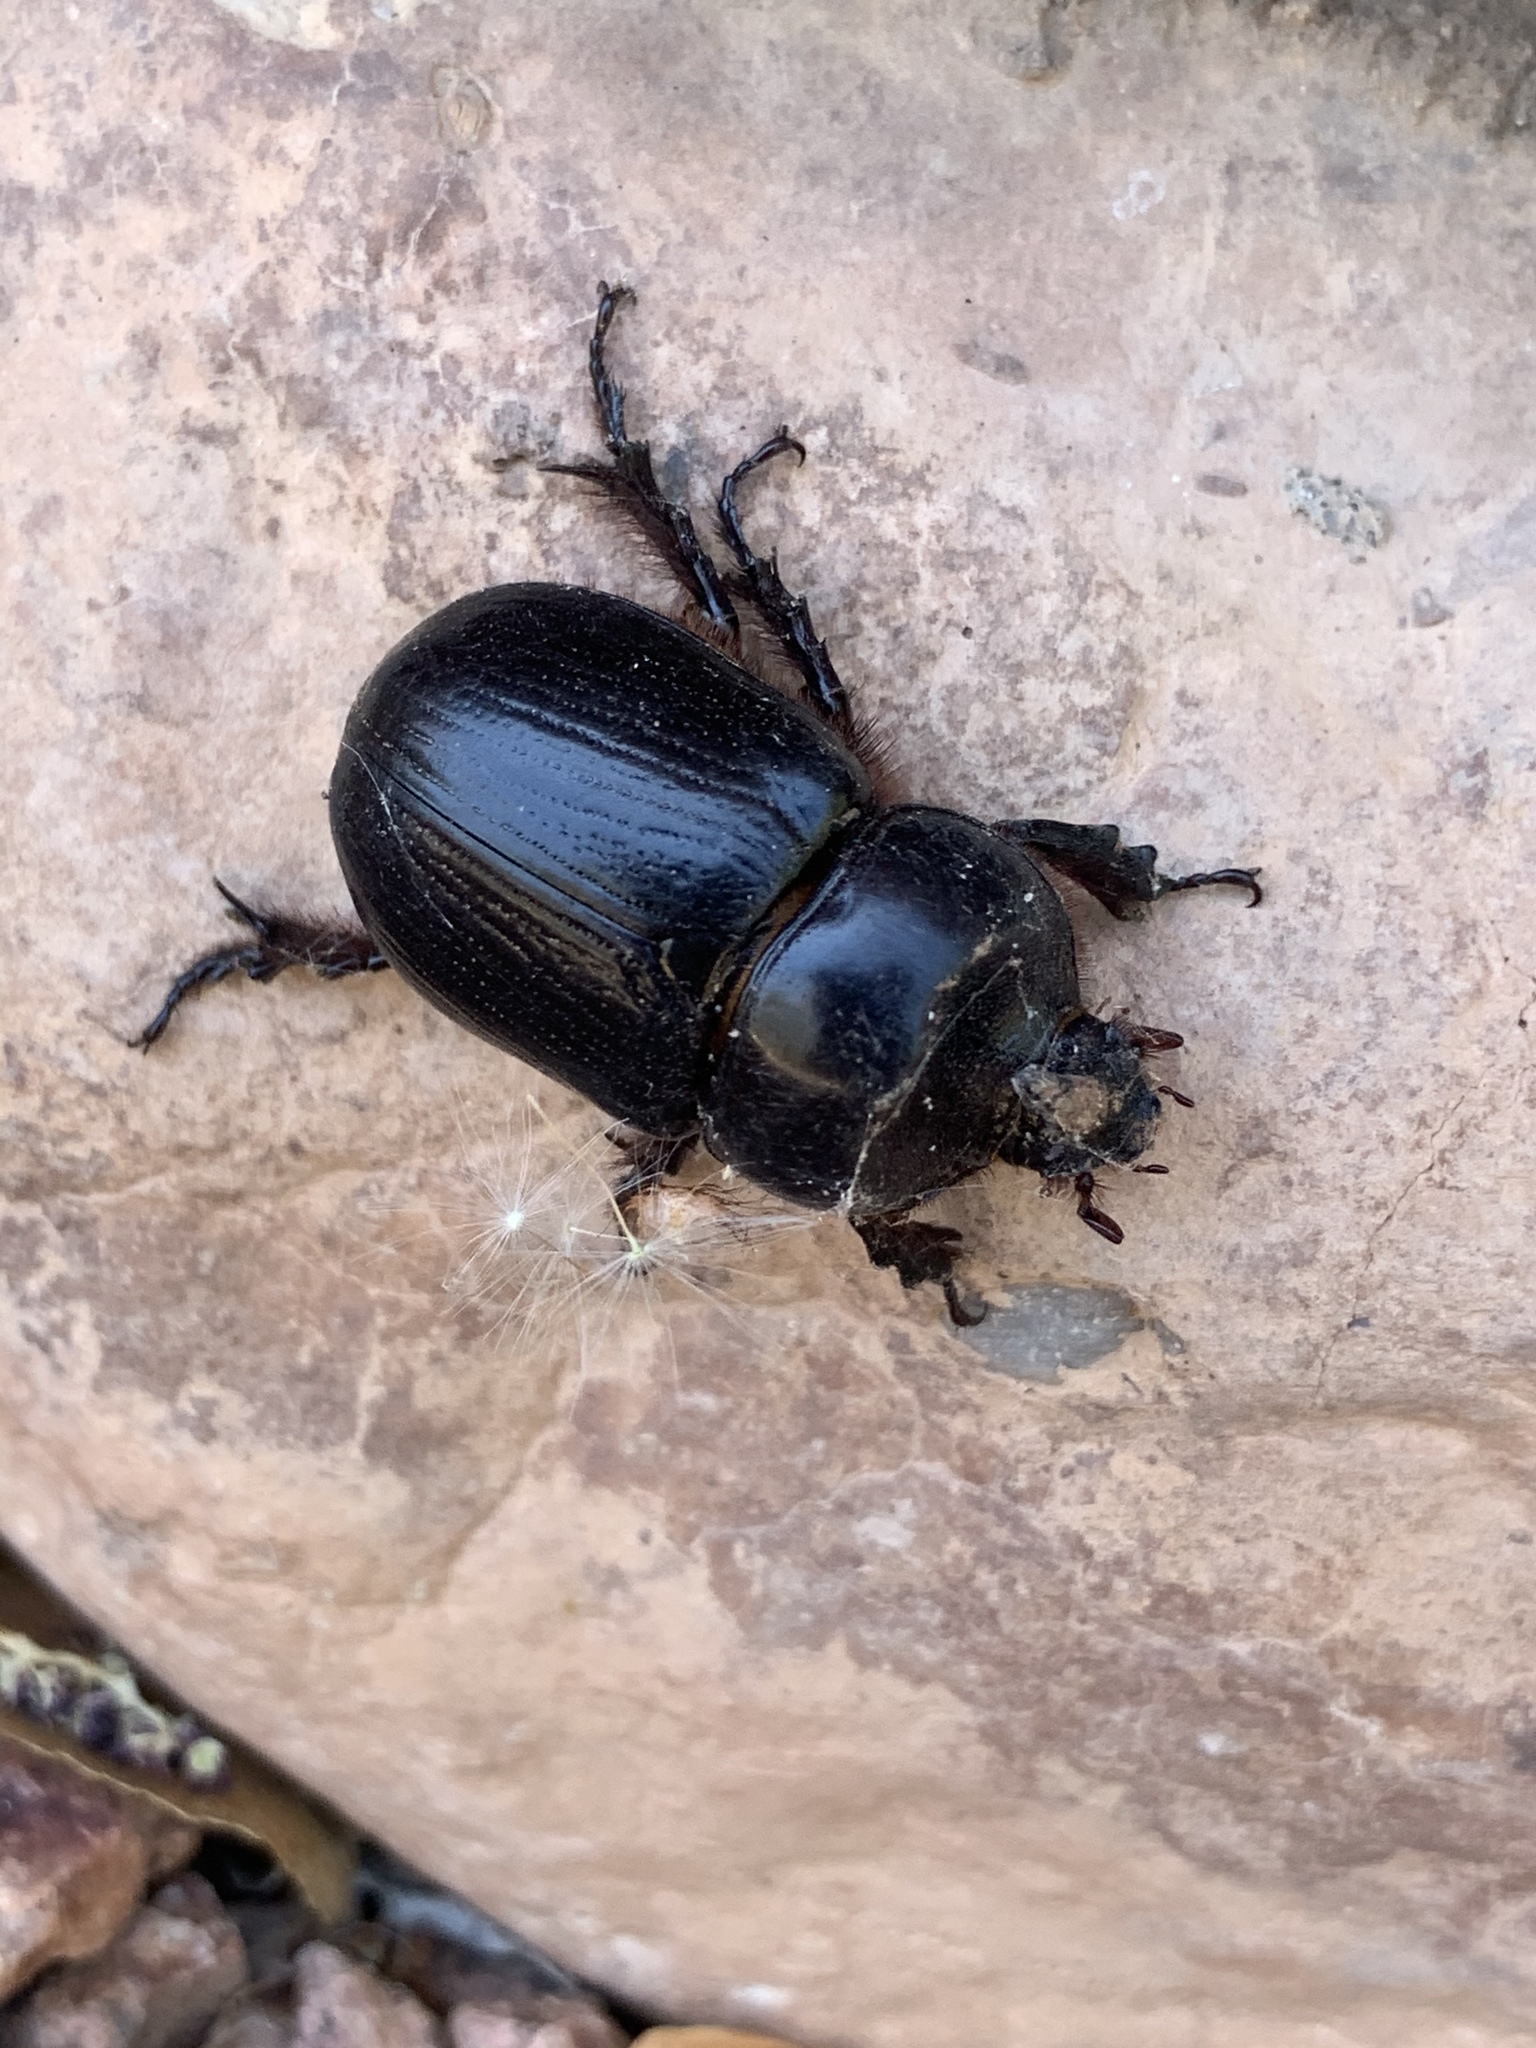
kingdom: Animalia
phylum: Arthropoda
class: Insecta
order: Coleoptera
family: Scarabaeidae
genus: Xyloryctes
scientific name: Xyloryctes thestalus
